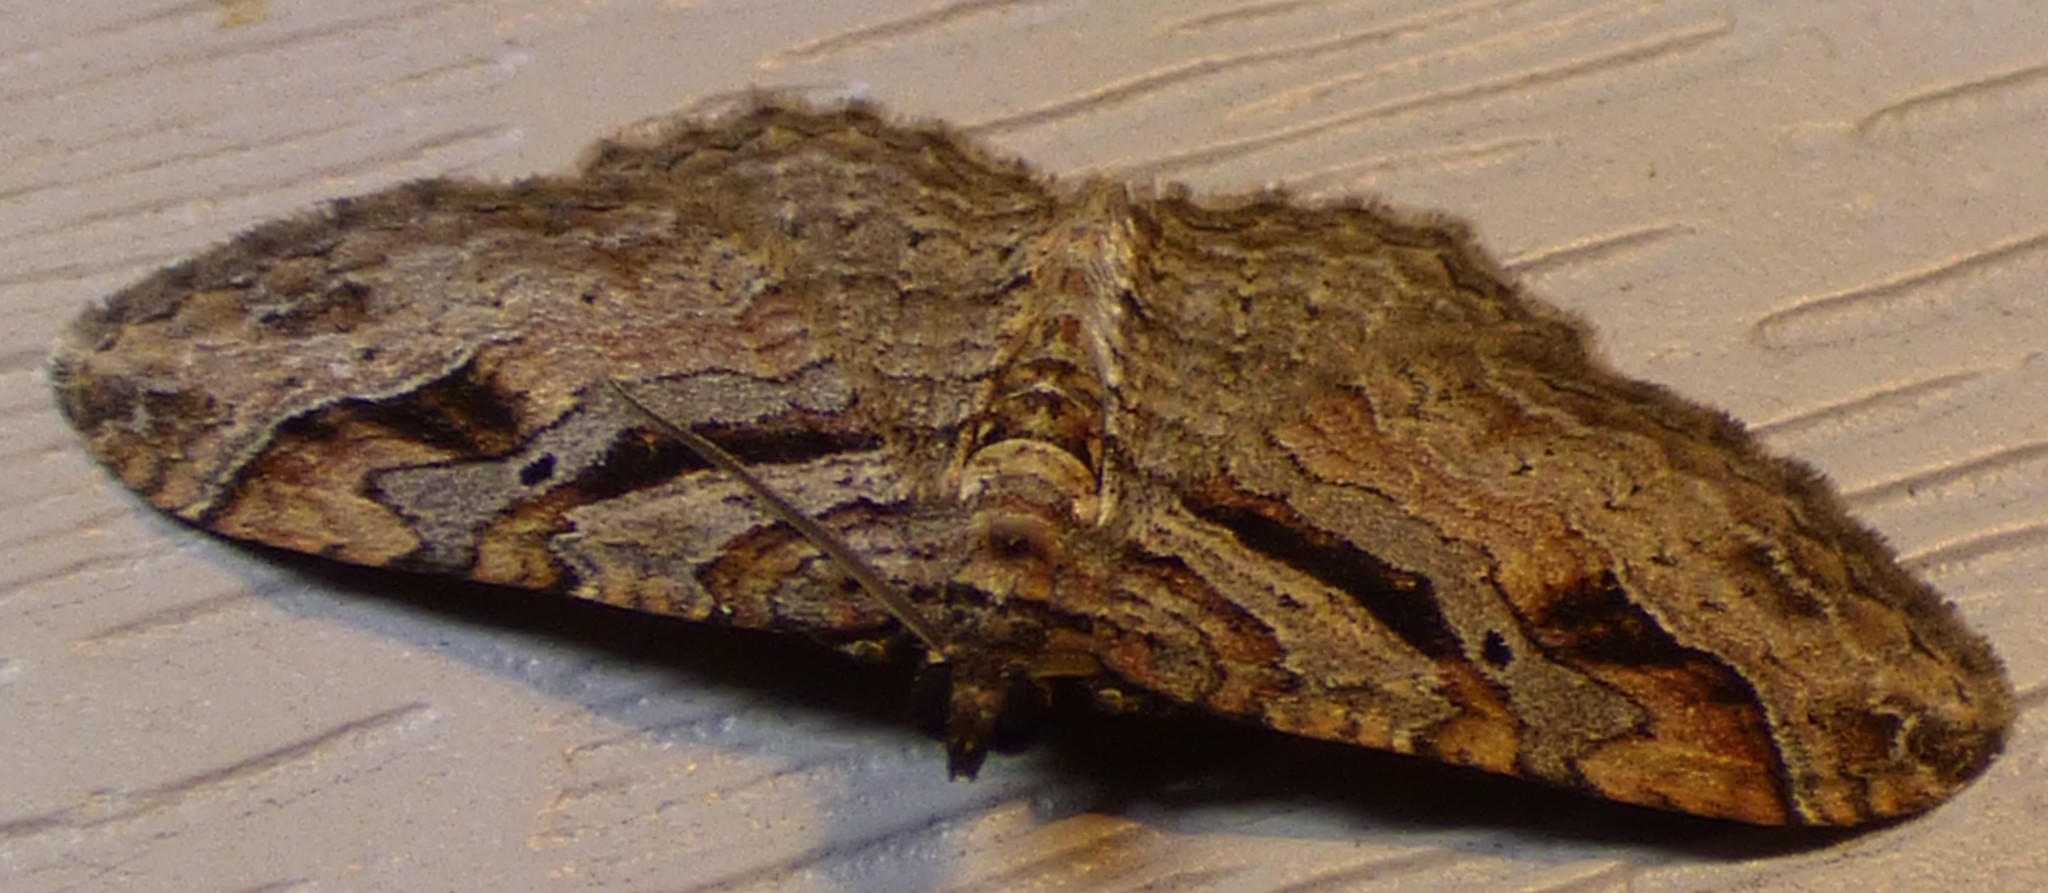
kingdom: Animalia
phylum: Arthropoda
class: Insecta
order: Lepidoptera
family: Geometridae
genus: Costaconvexa
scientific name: Costaconvexa centrostrigaria
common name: Bent-line carpet
